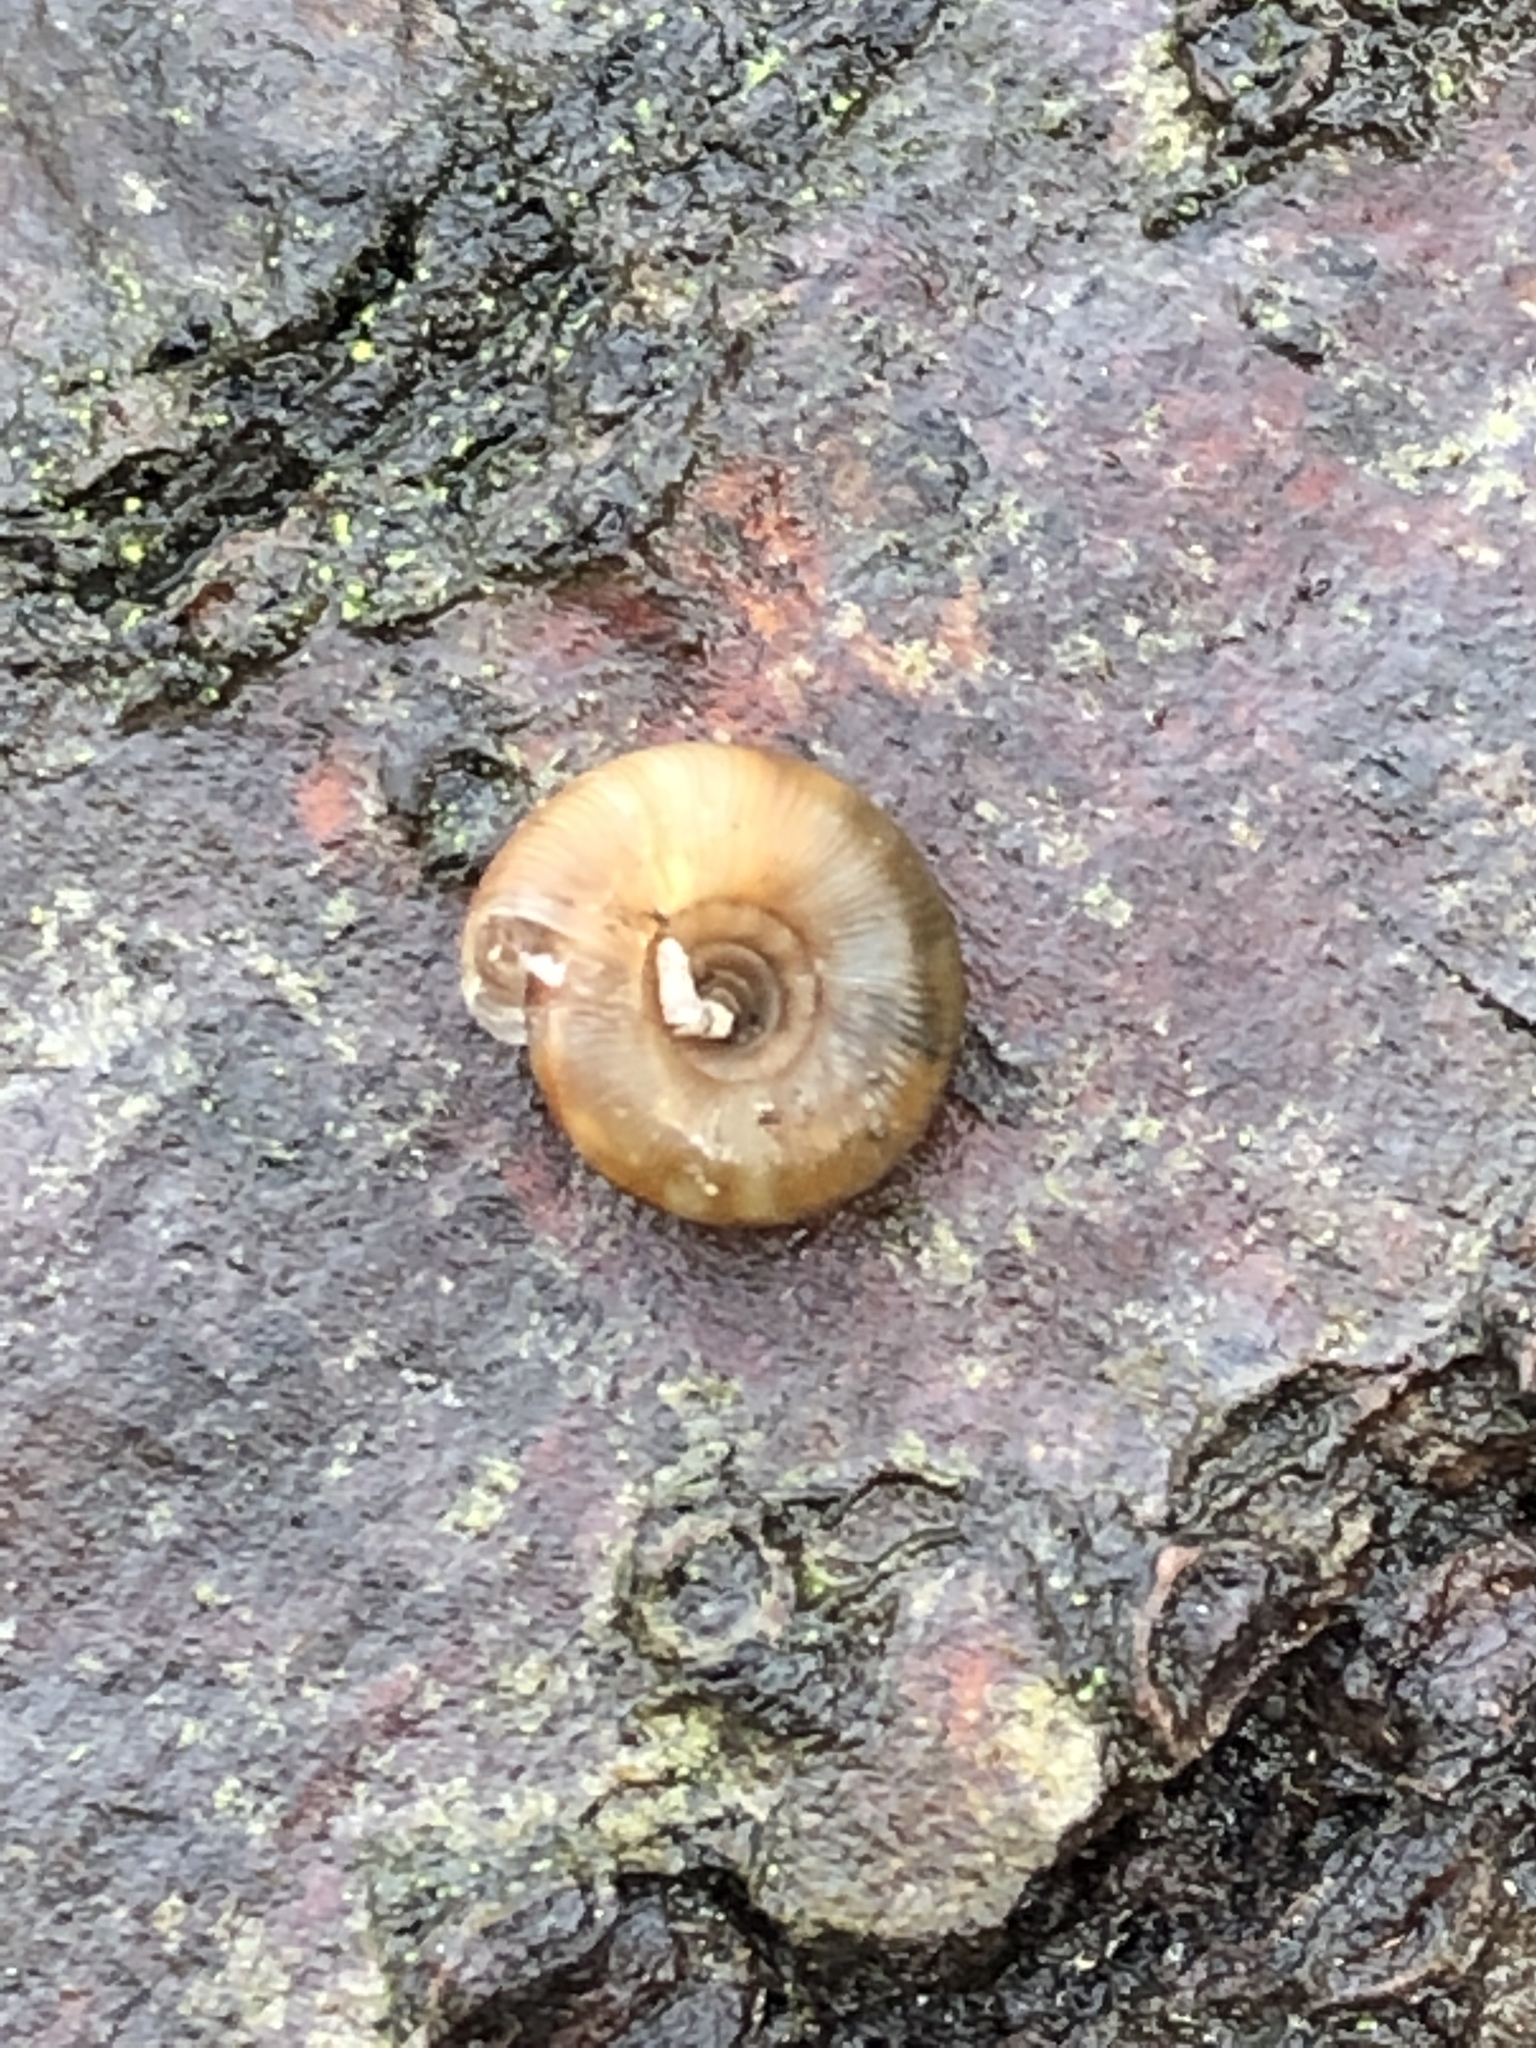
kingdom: Animalia
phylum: Mollusca
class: Gastropoda
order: Stylommatophora
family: Discidae
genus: Discus
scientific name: Discus rotundatus
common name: Rounded snail
